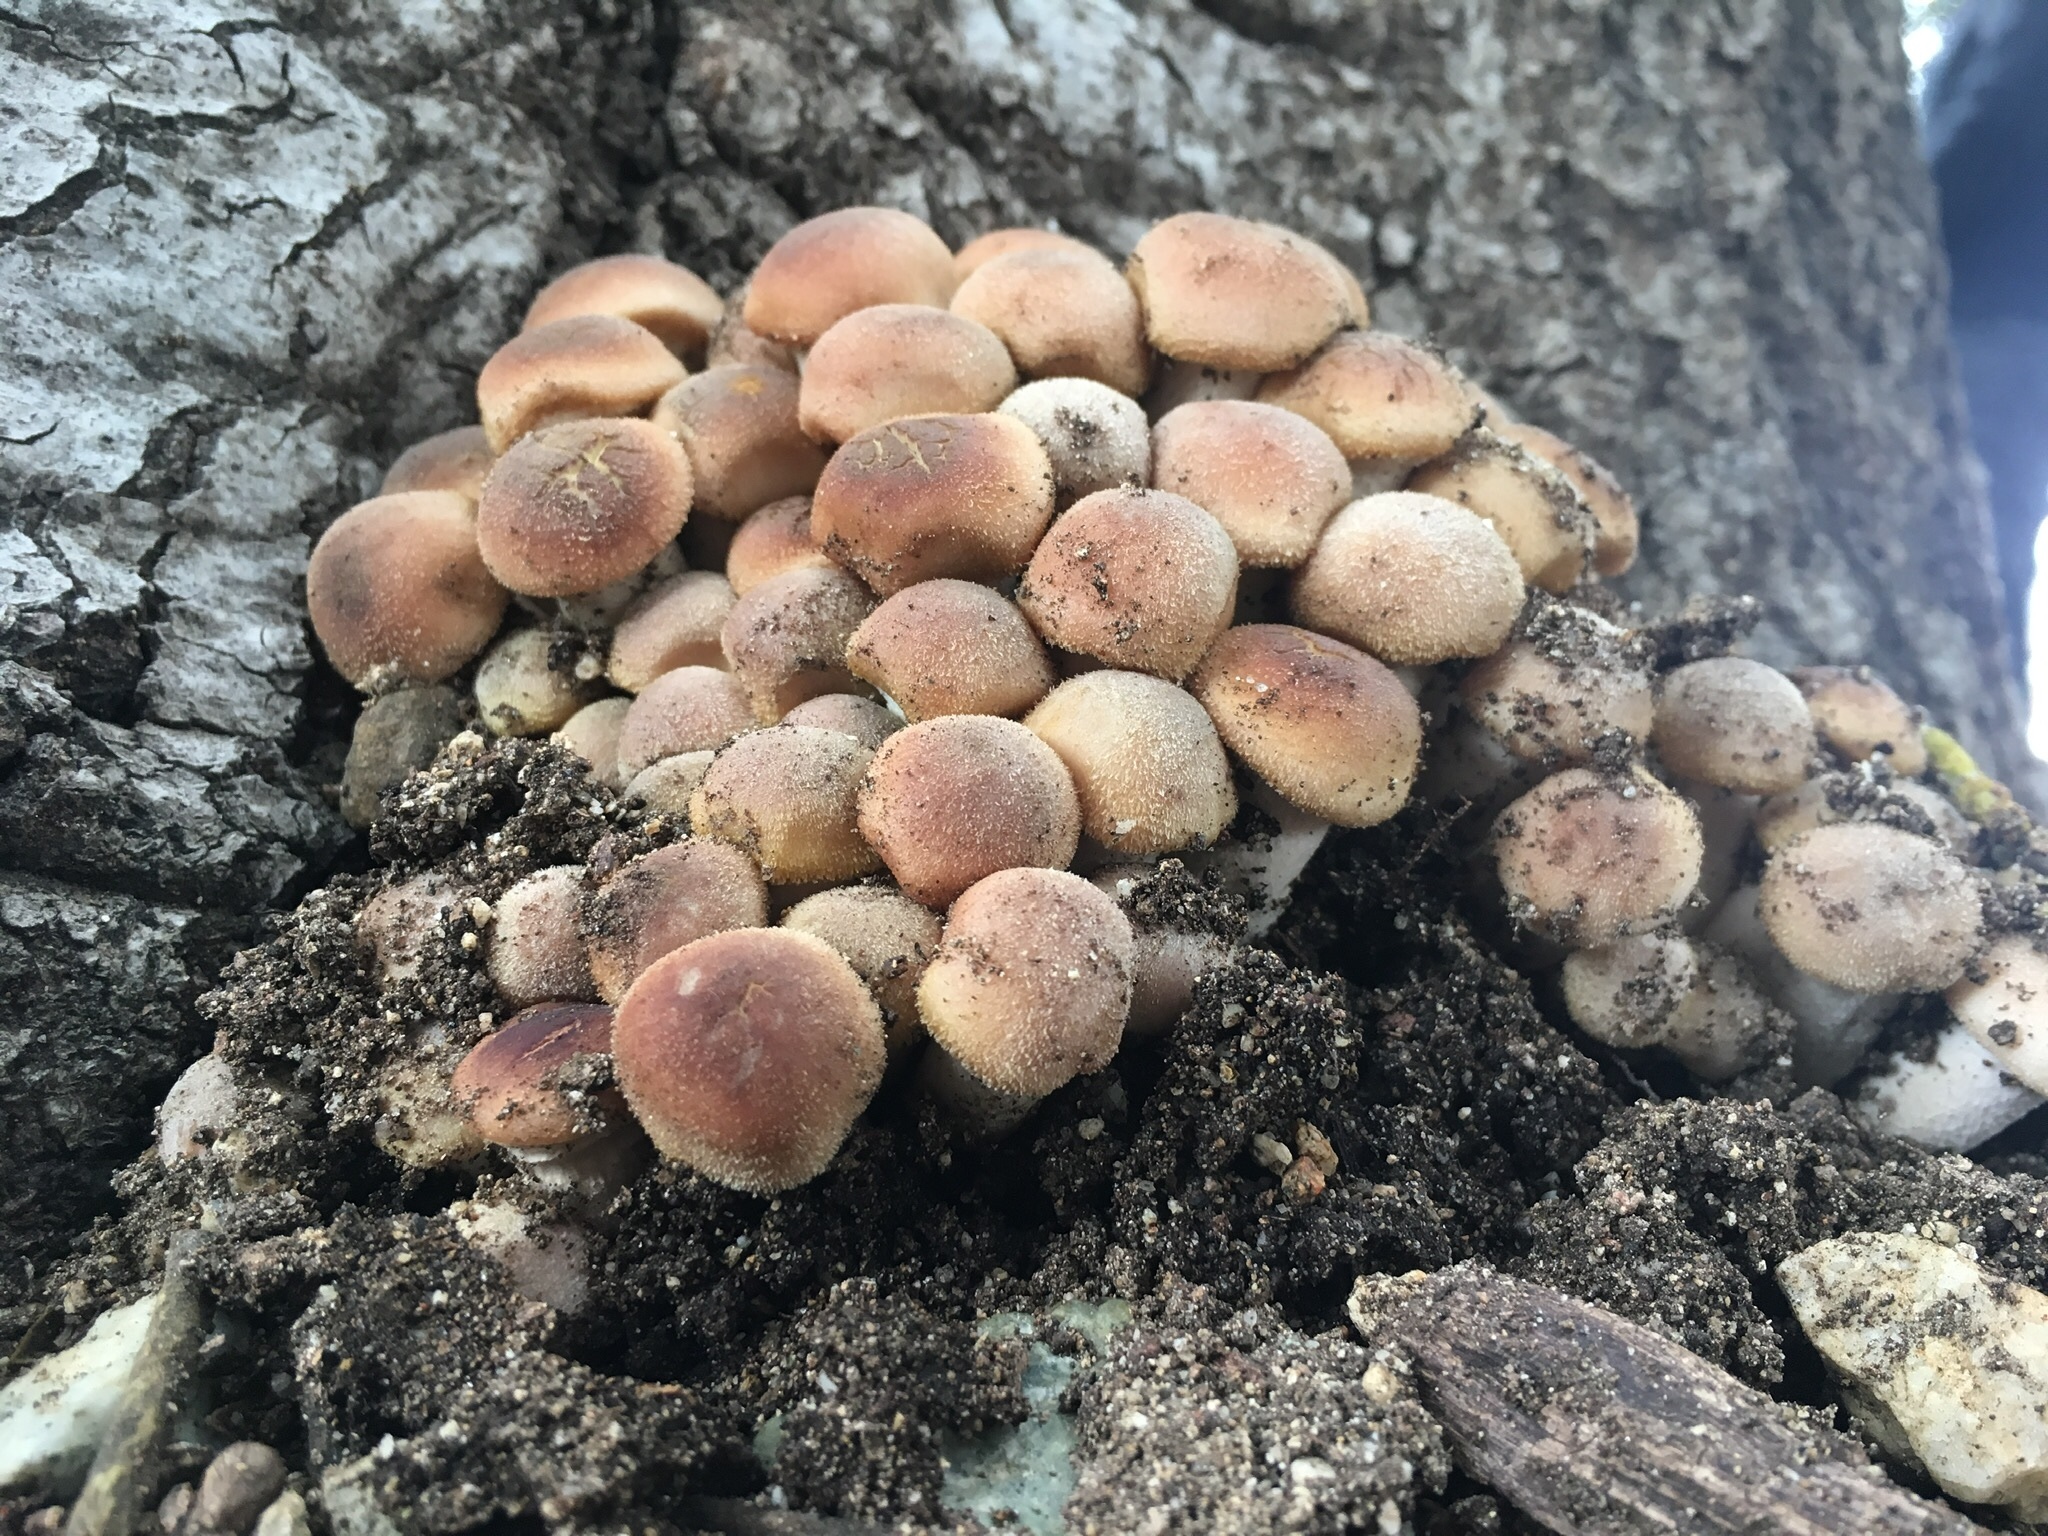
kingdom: Fungi
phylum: Basidiomycota
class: Agaricomycetes
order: Agaricales
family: Physalacriaceae
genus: Armillaria
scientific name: Armillaria mellea
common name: Honey fungus
